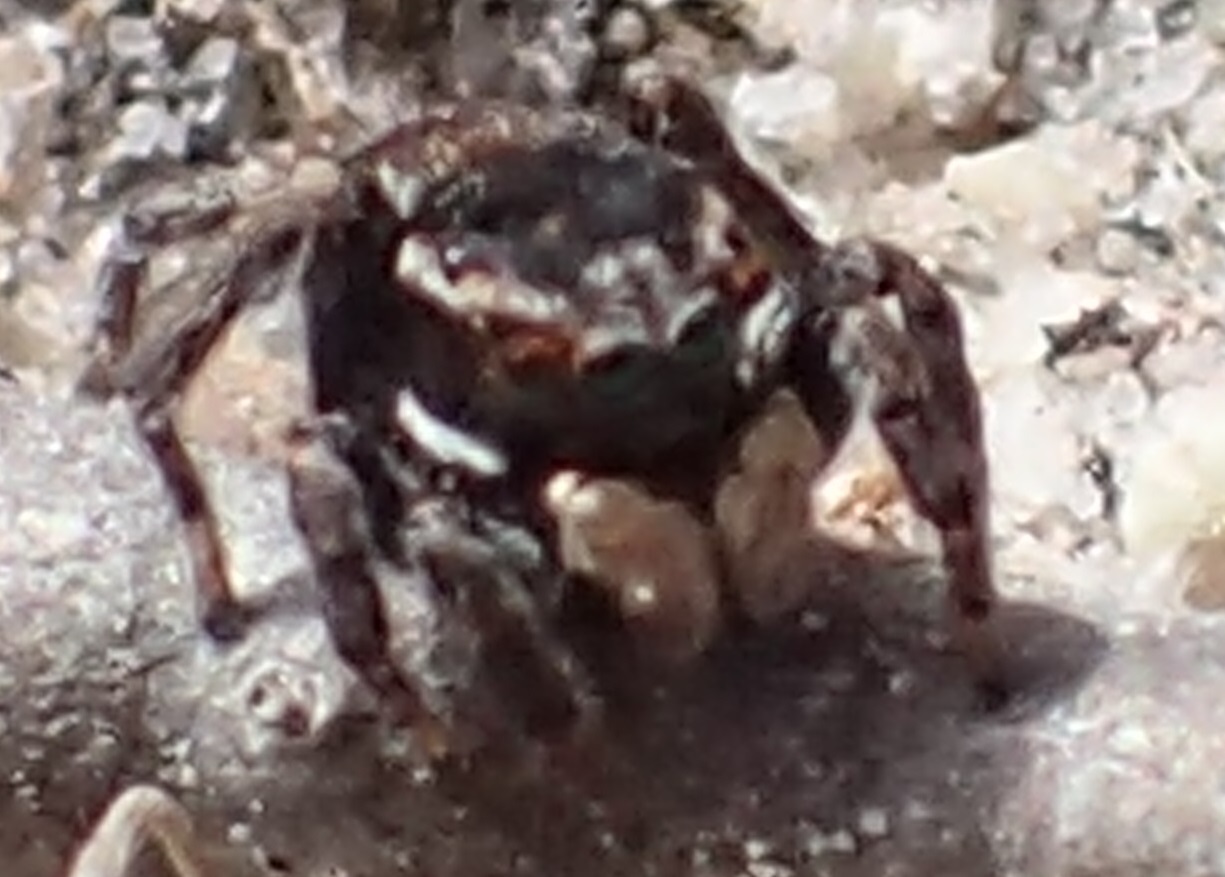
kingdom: Animalia
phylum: Arthropoda
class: Arachnida
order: Araneae
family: Salticidae
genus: Maratus
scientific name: Maratus proszynskii
